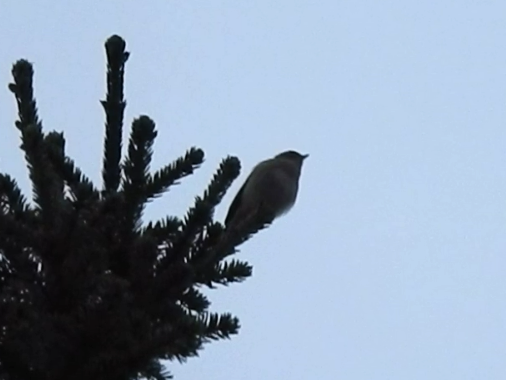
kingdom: Animalia
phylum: Chordata
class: Aves
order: Passeriformes
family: Phylloscopidae
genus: Phylloscopus
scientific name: Phylloscopus collybita
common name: Common chiffchaff
